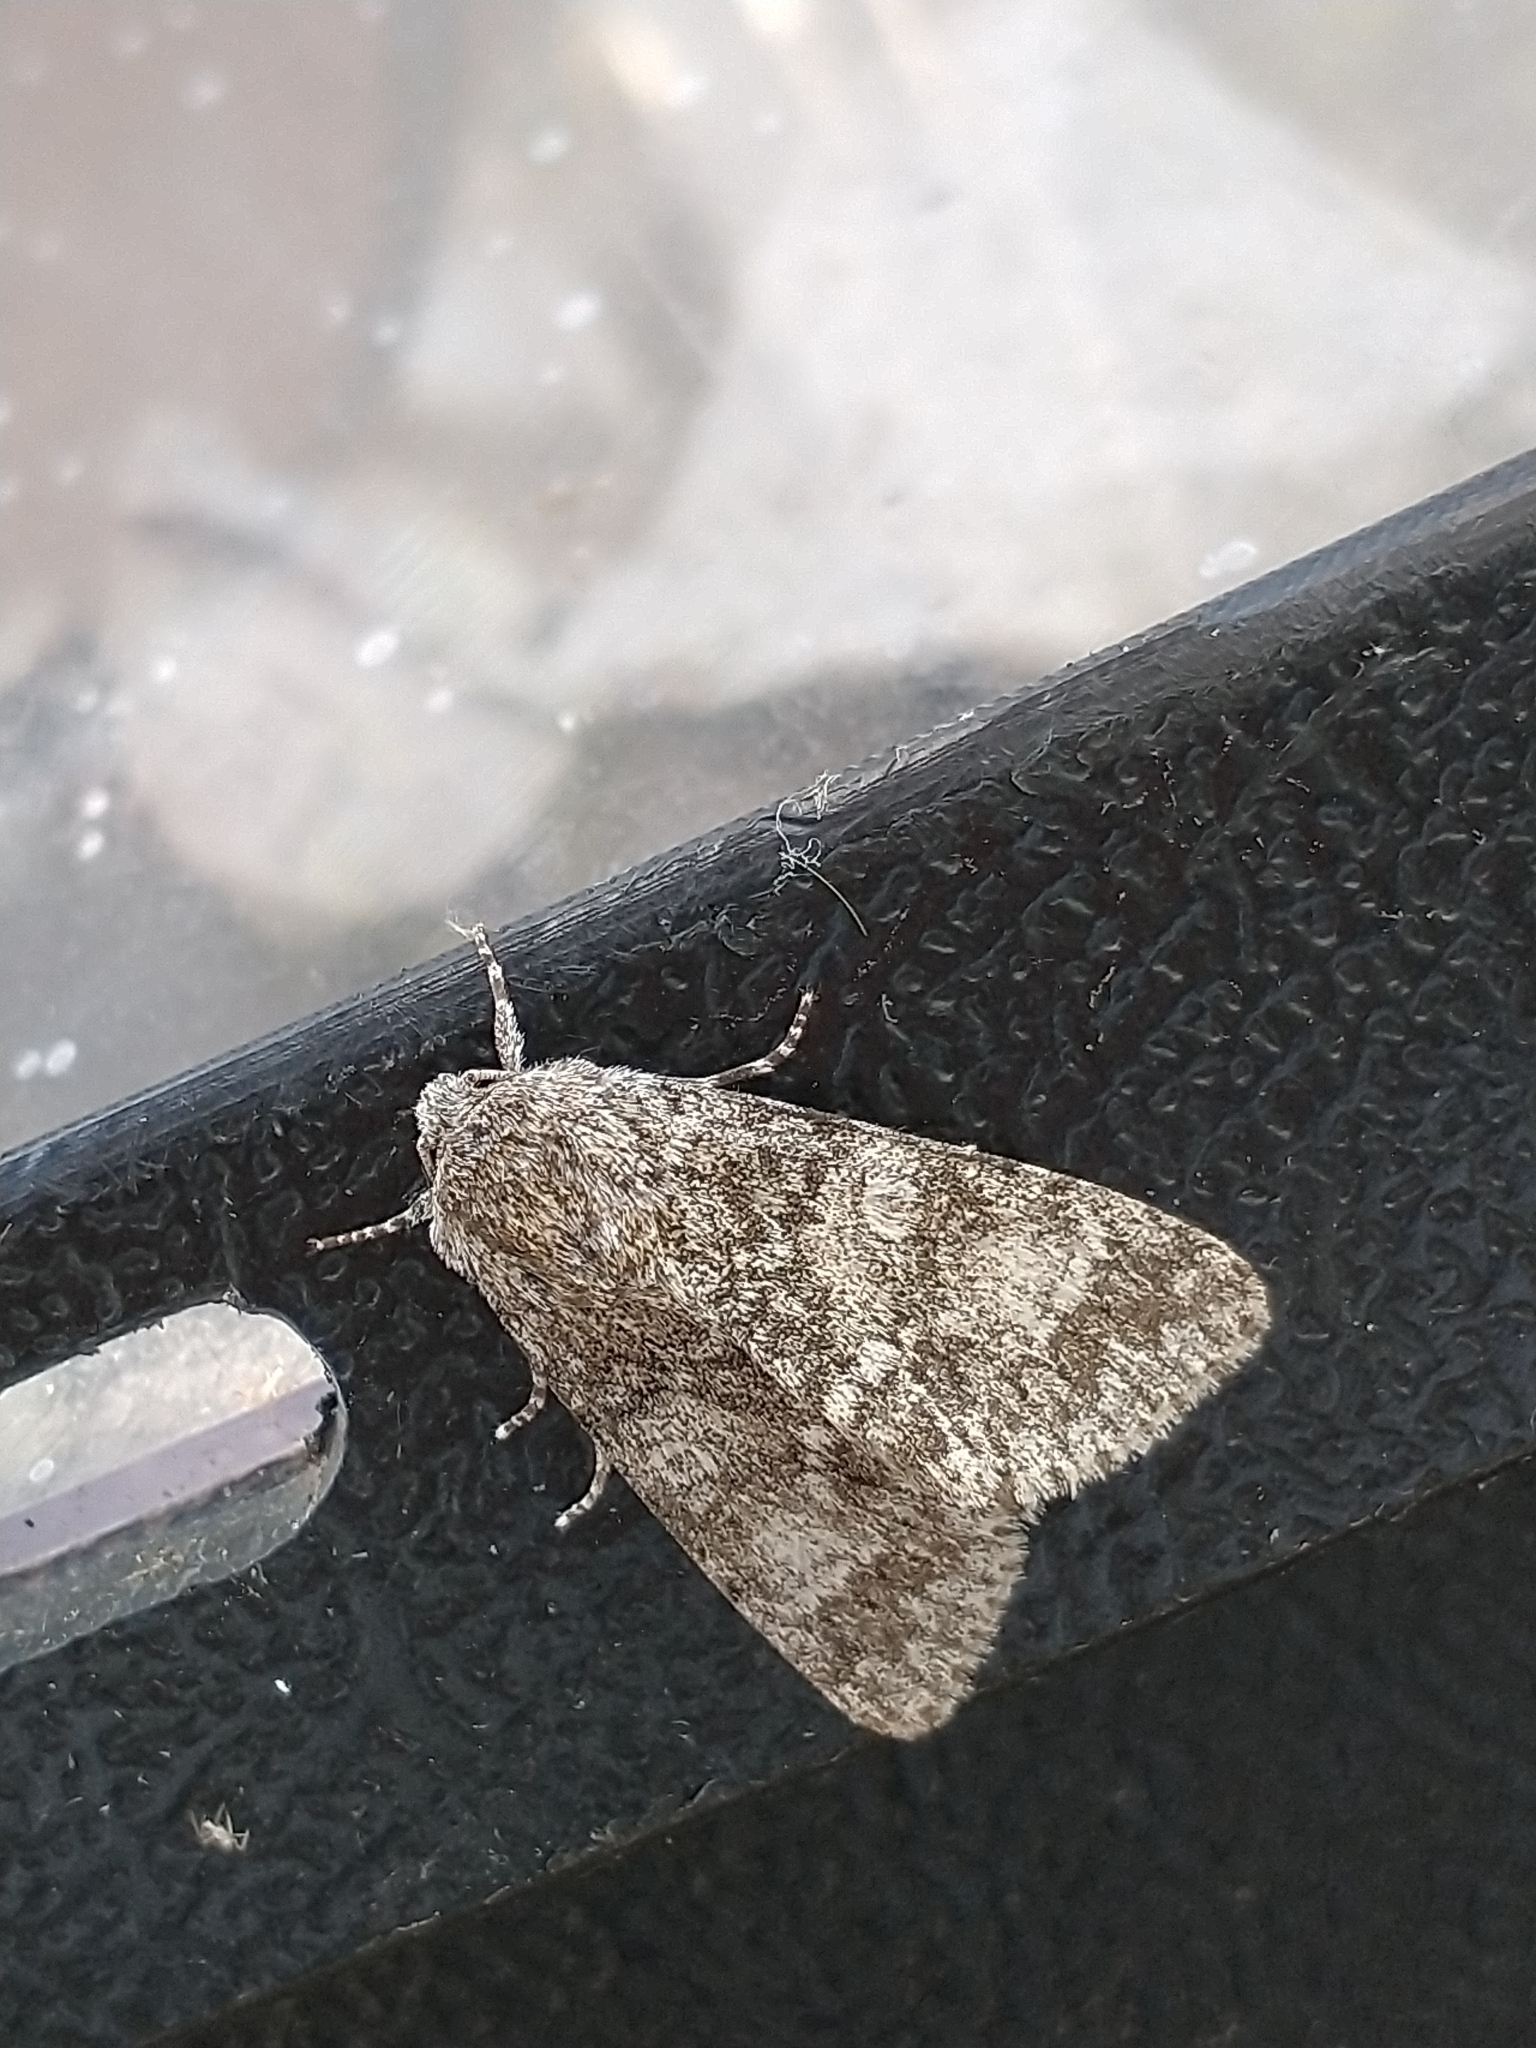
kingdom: Animalia
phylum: Arthropoda
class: Insecta
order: Lepidoptera
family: Noctuidae
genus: Acronicta
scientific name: Acronicta megacephala
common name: Poplar grey
